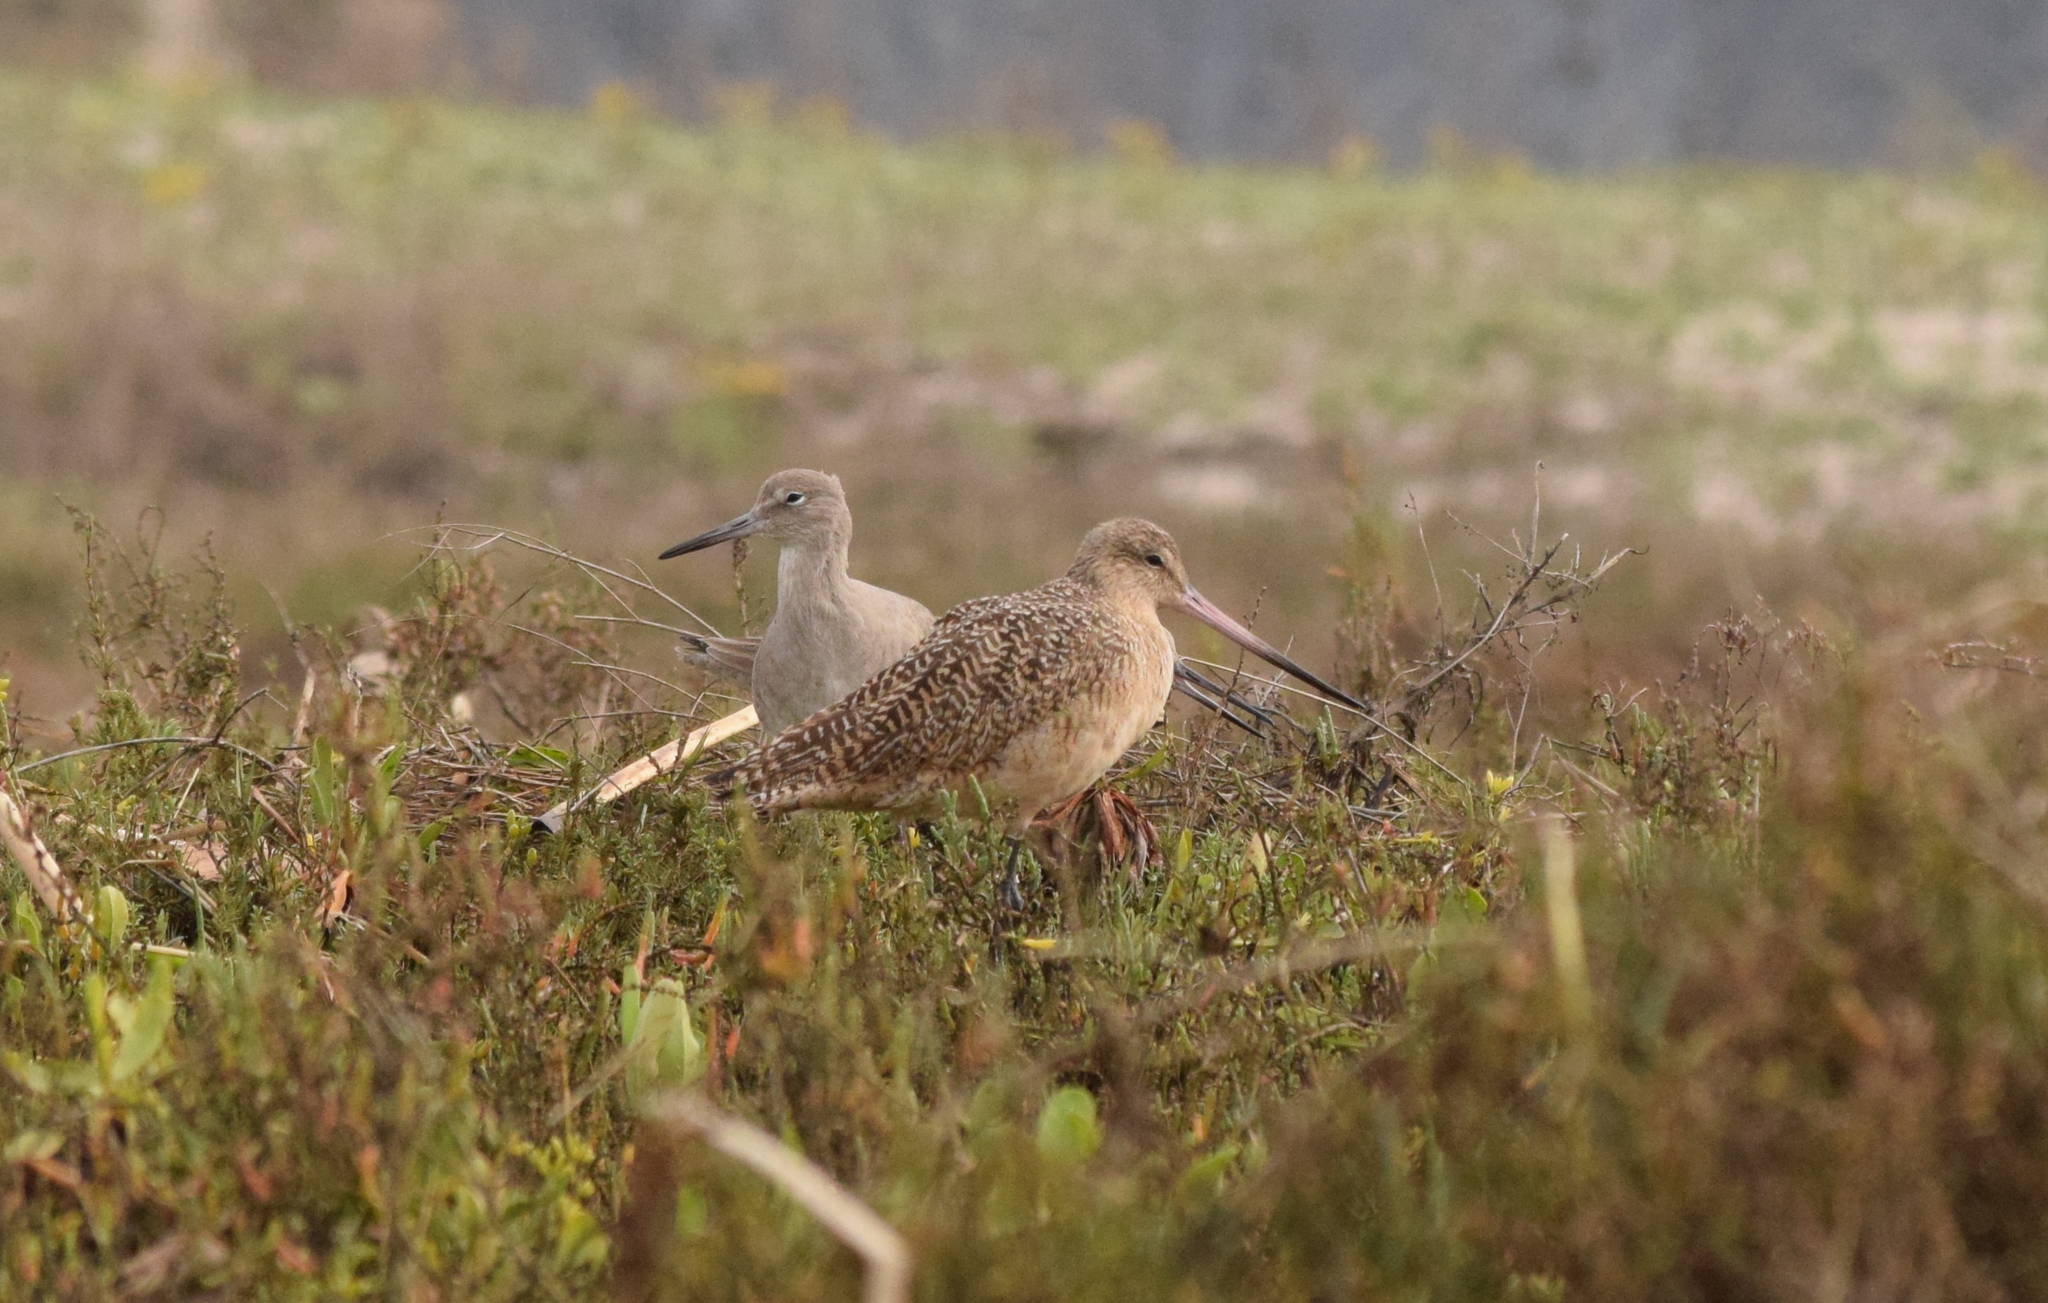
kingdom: Animalia
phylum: Chordata
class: Aves
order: Charadriiformes
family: Scolopacidae
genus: Limosa
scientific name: Limosa fedoa
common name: Marbled godwit
